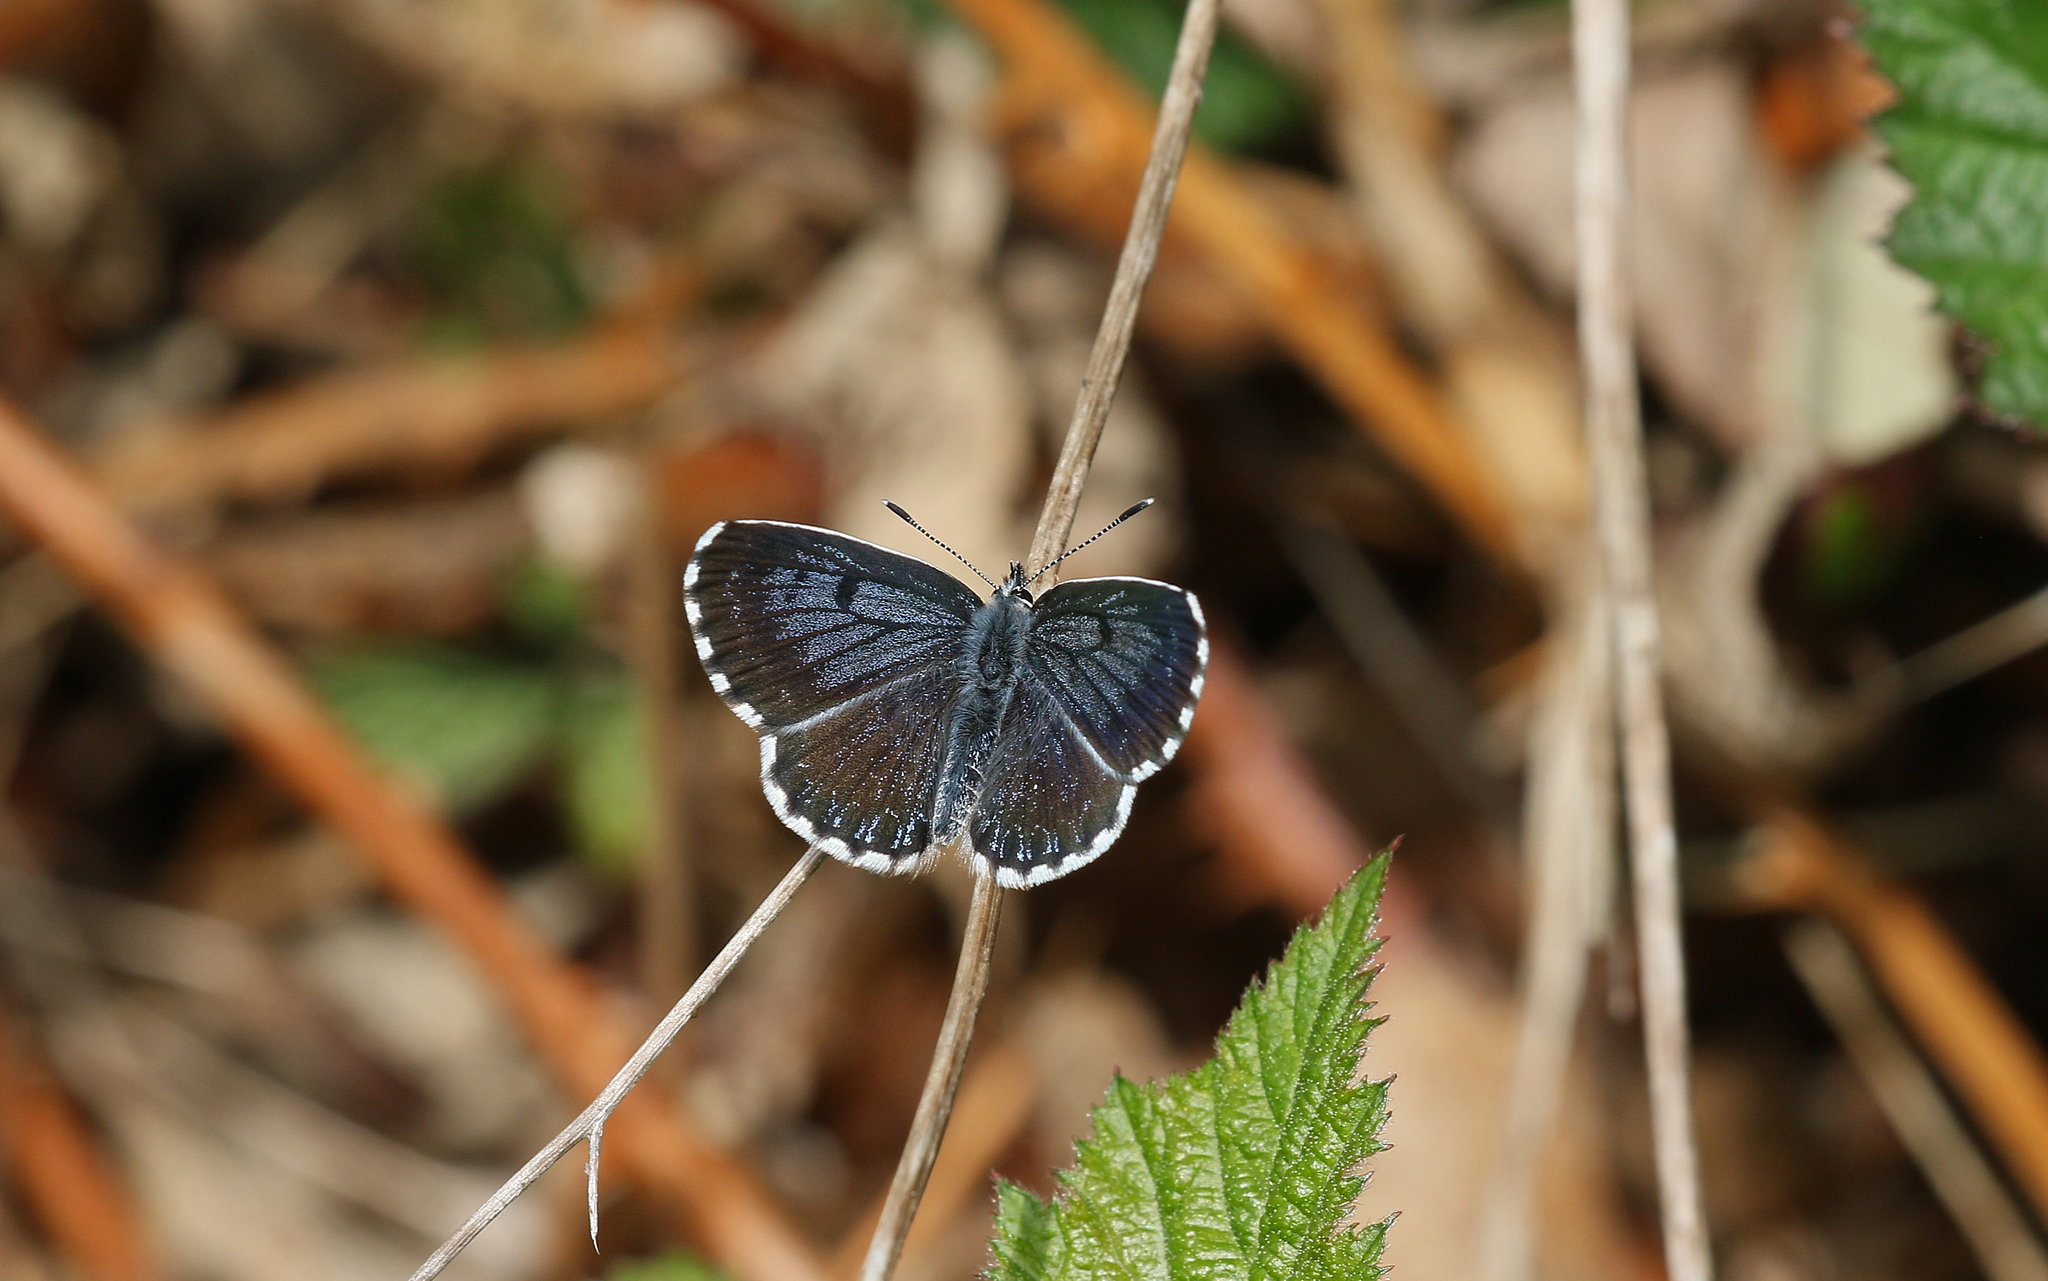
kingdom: Animalia
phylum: Arthropoda
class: Insecta
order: Lepidoptera
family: Lycaenidae
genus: Scolitantides
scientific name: Scolitantides orion
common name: Chequered blue
